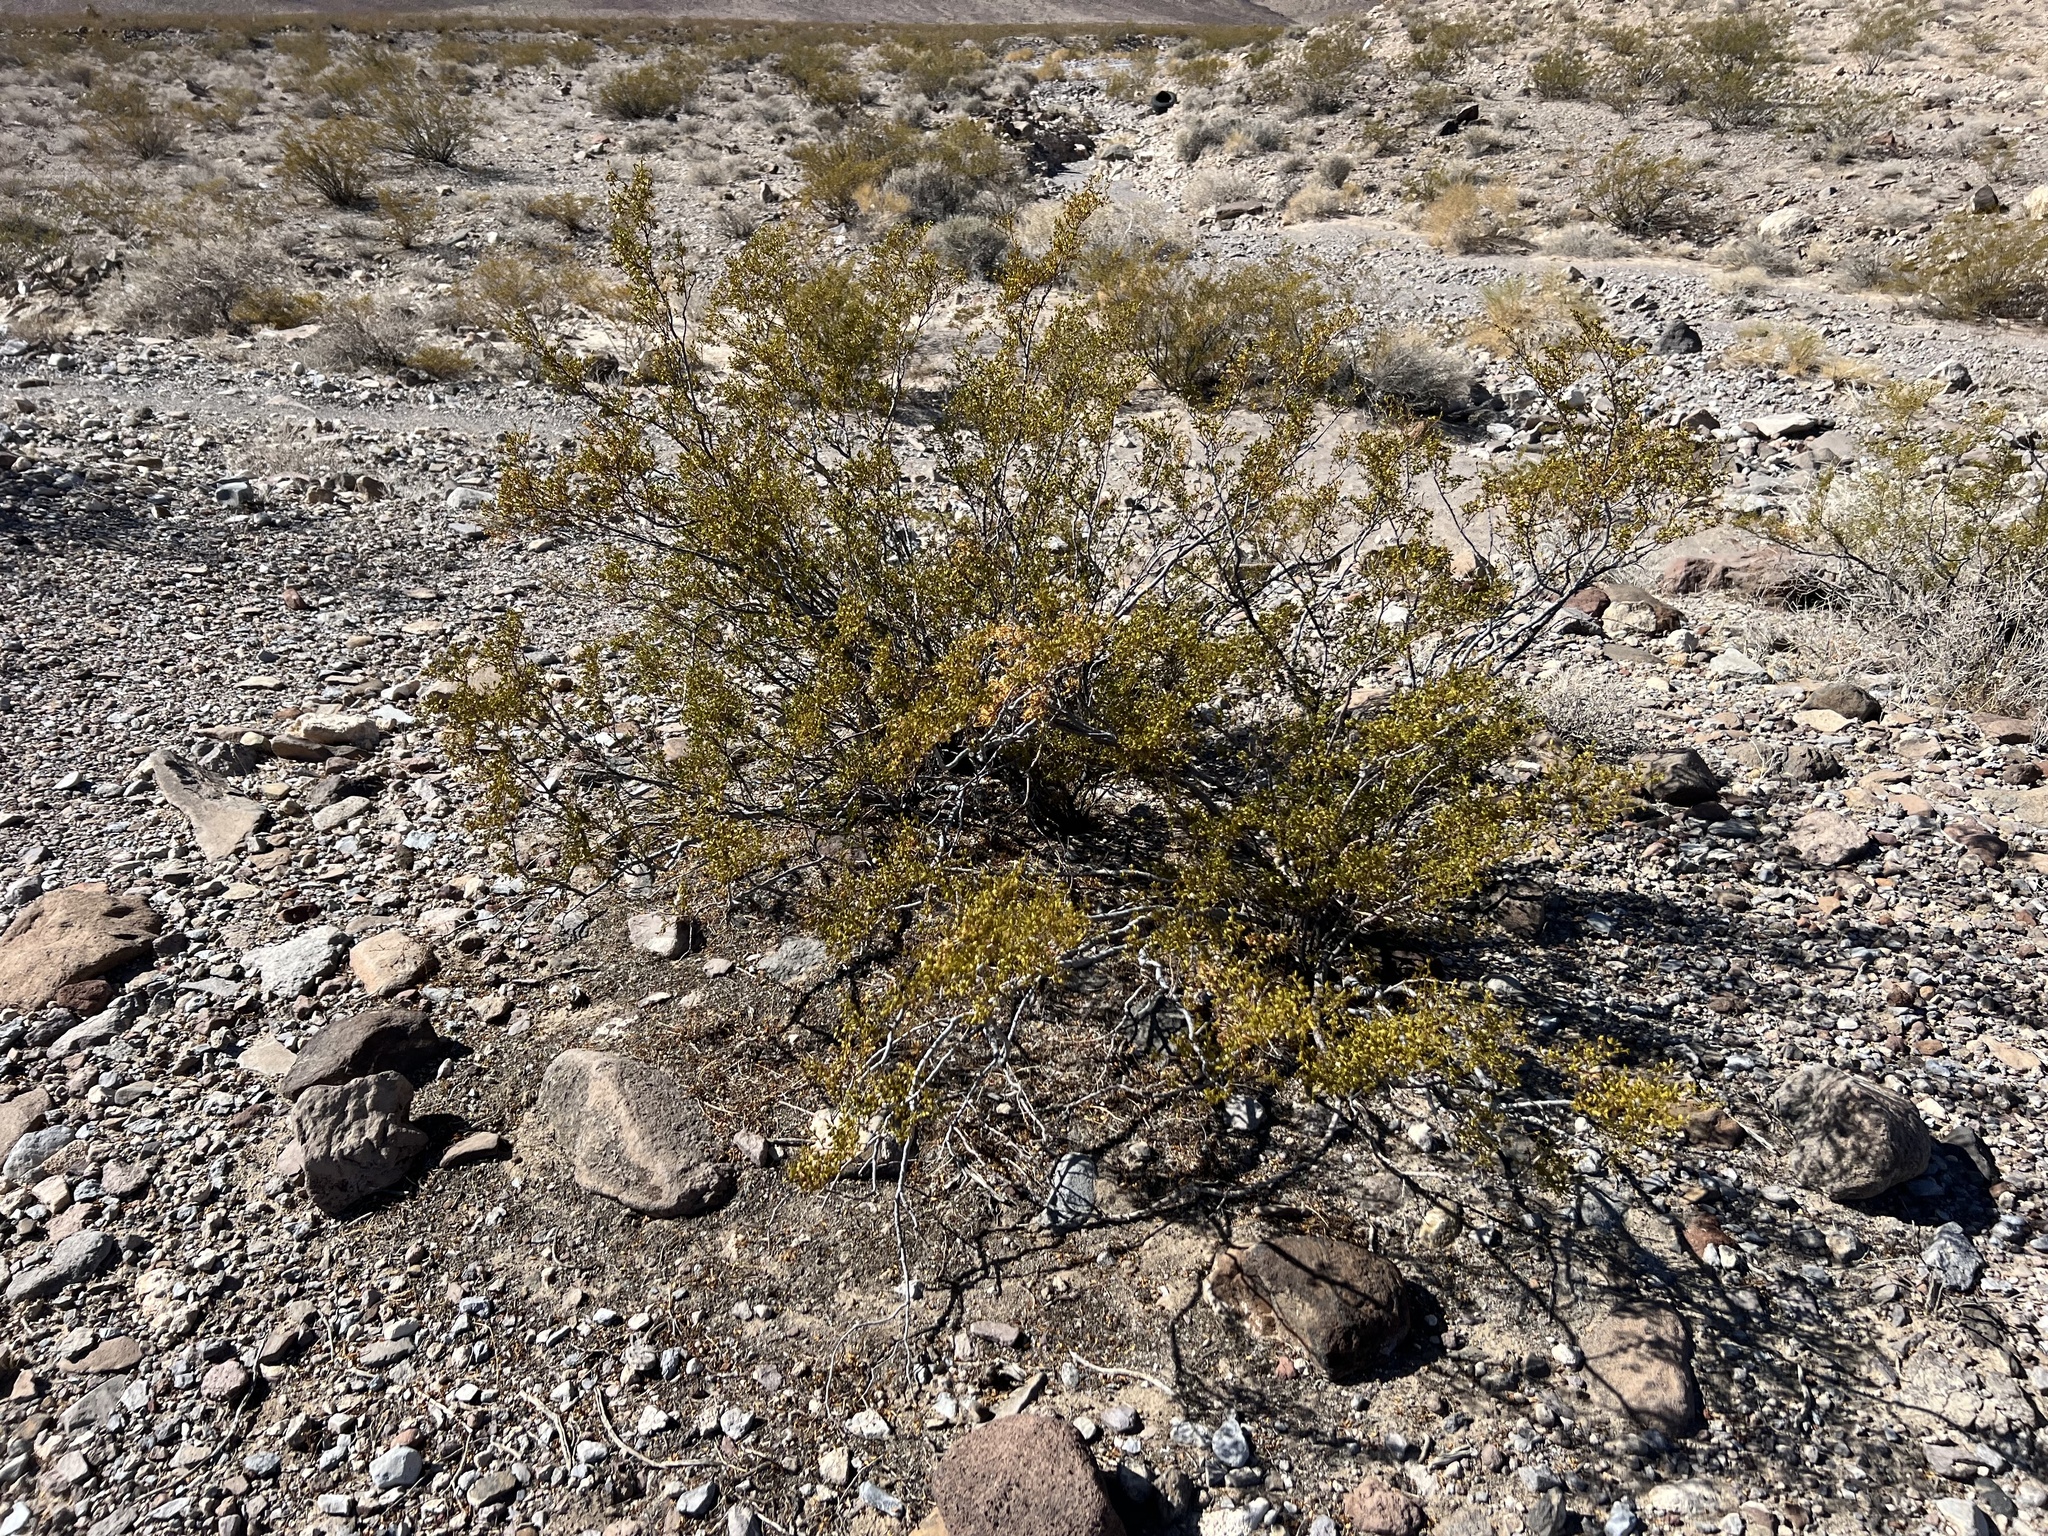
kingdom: Plantae
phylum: Tracheophyta
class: Magnoliopsida
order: Zygophyllales
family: Zygophyllaceae
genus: Larrea
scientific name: Larrea tridentata
